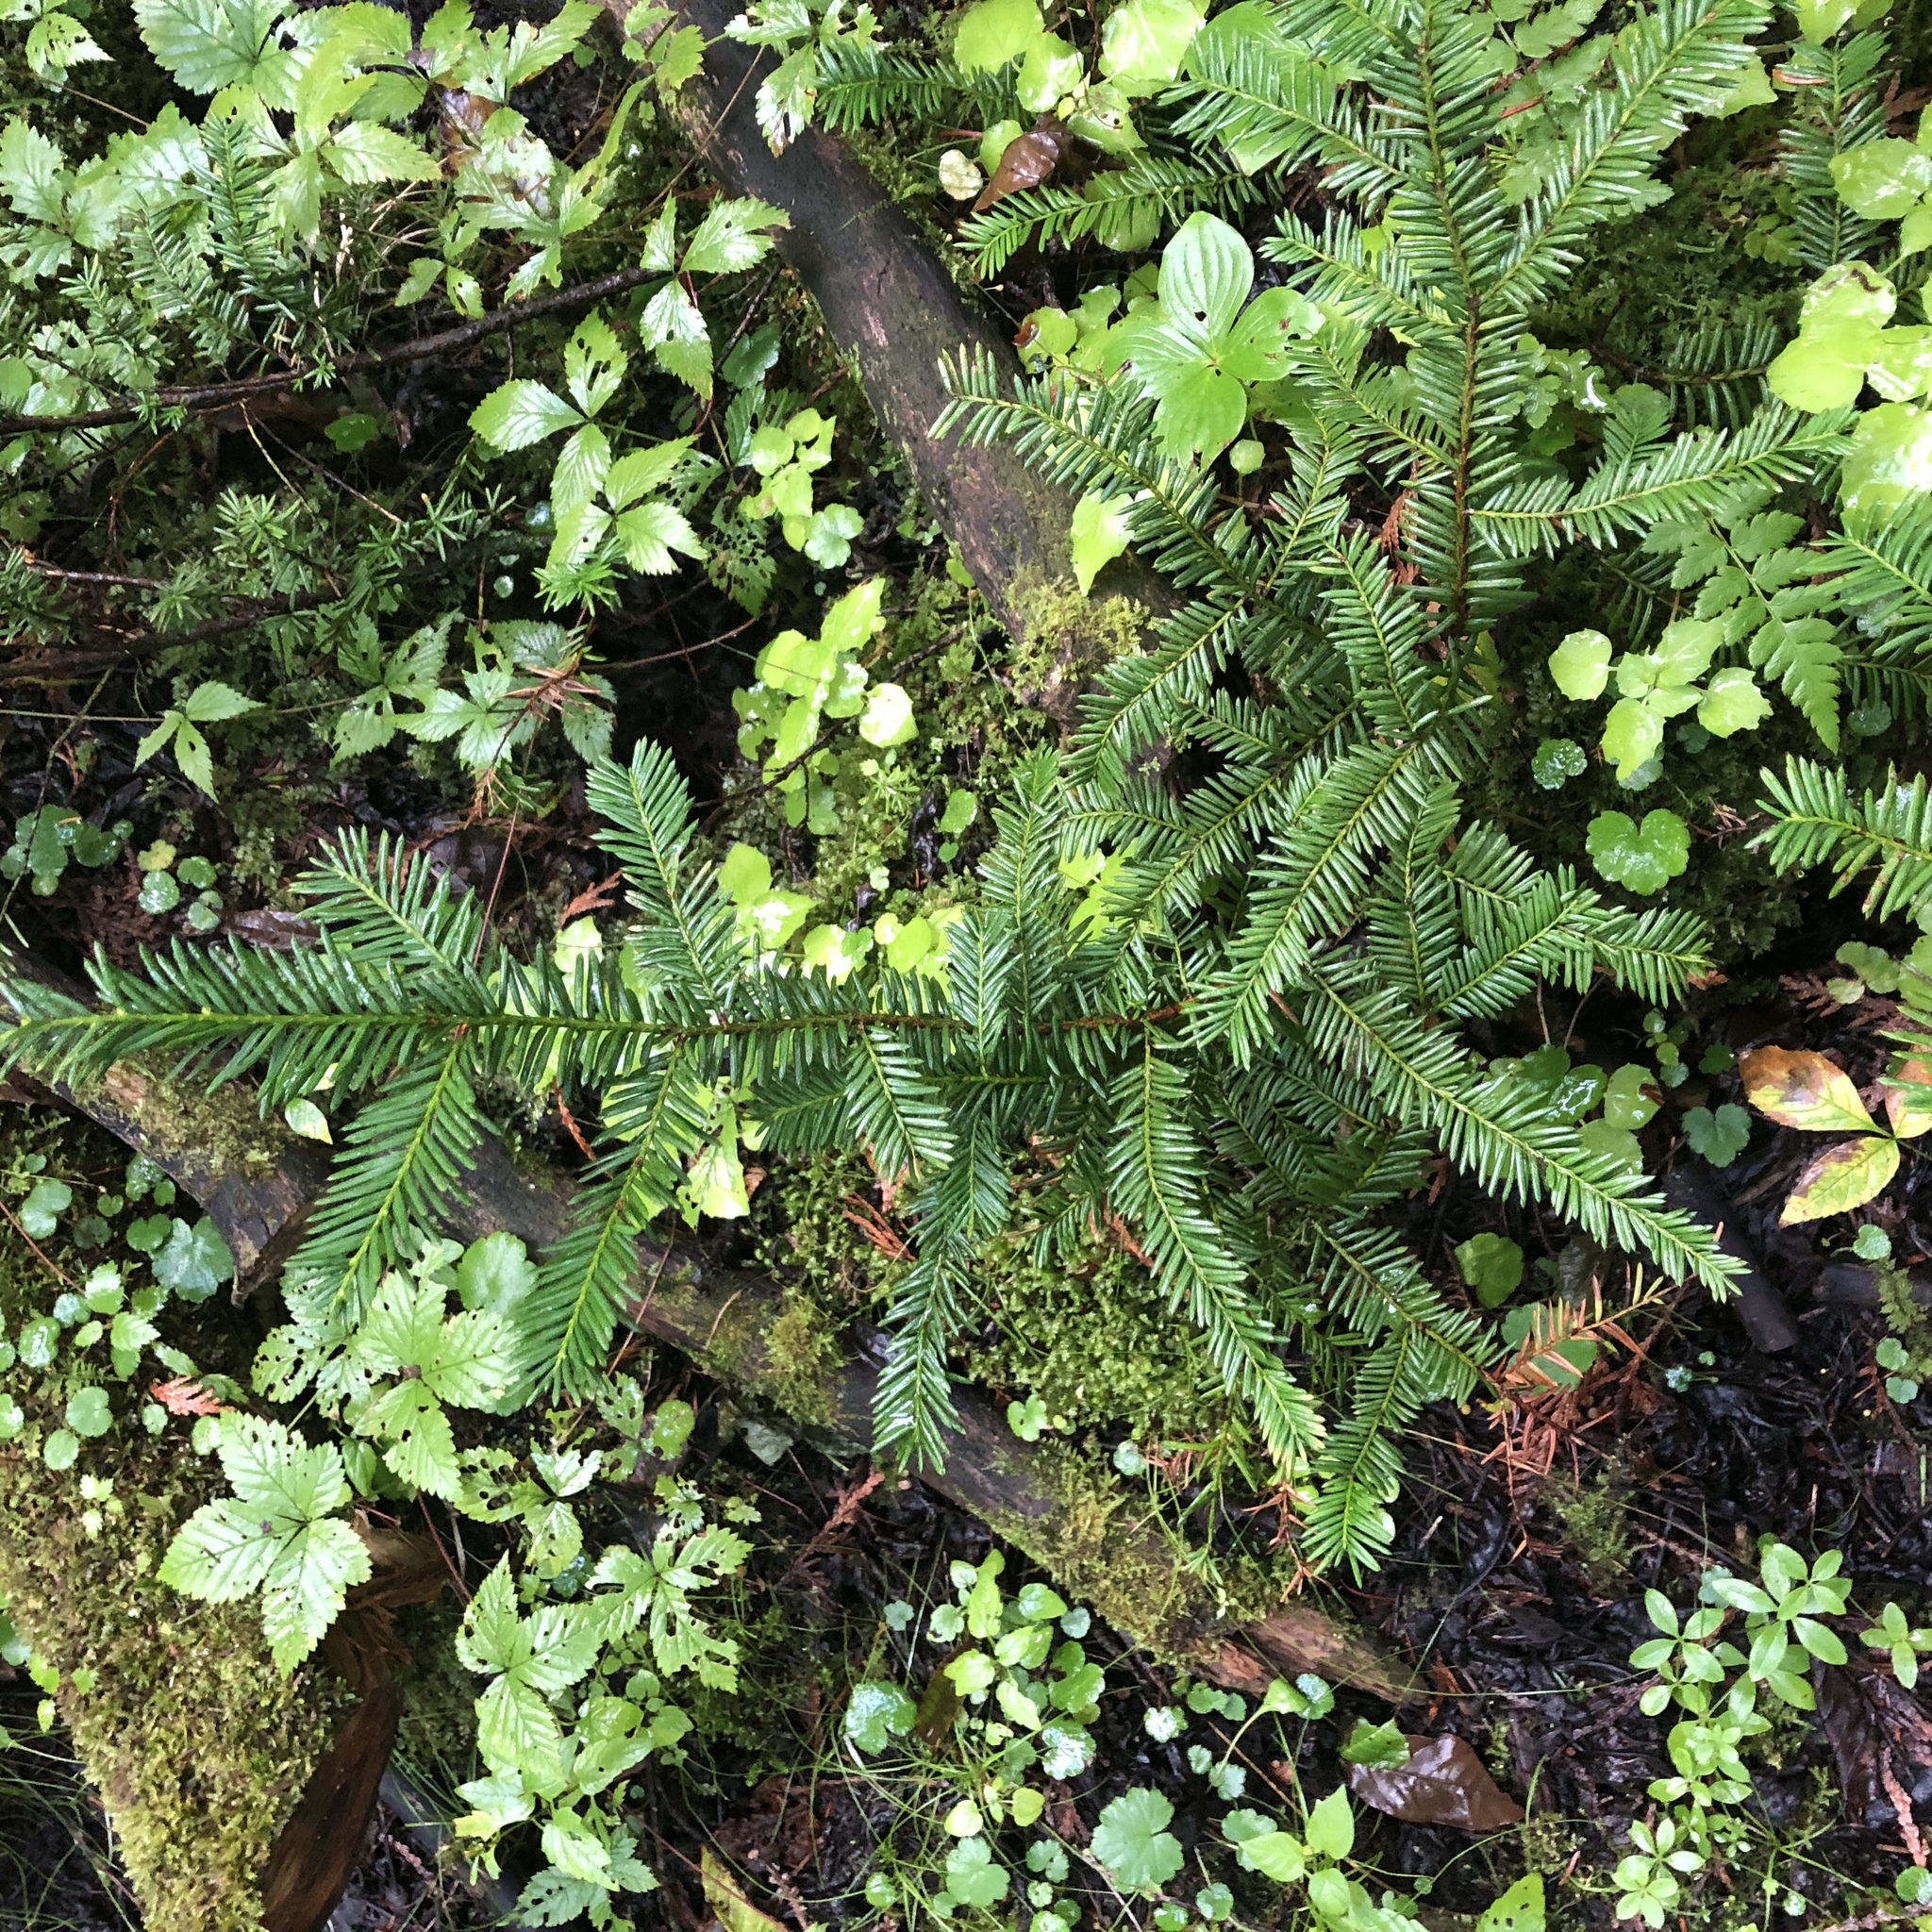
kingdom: Plantae
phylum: Tracheophyta
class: Pinopsida
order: Pinales
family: Taxaceae
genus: Taxus
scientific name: Taxus canadensis
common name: American yew
